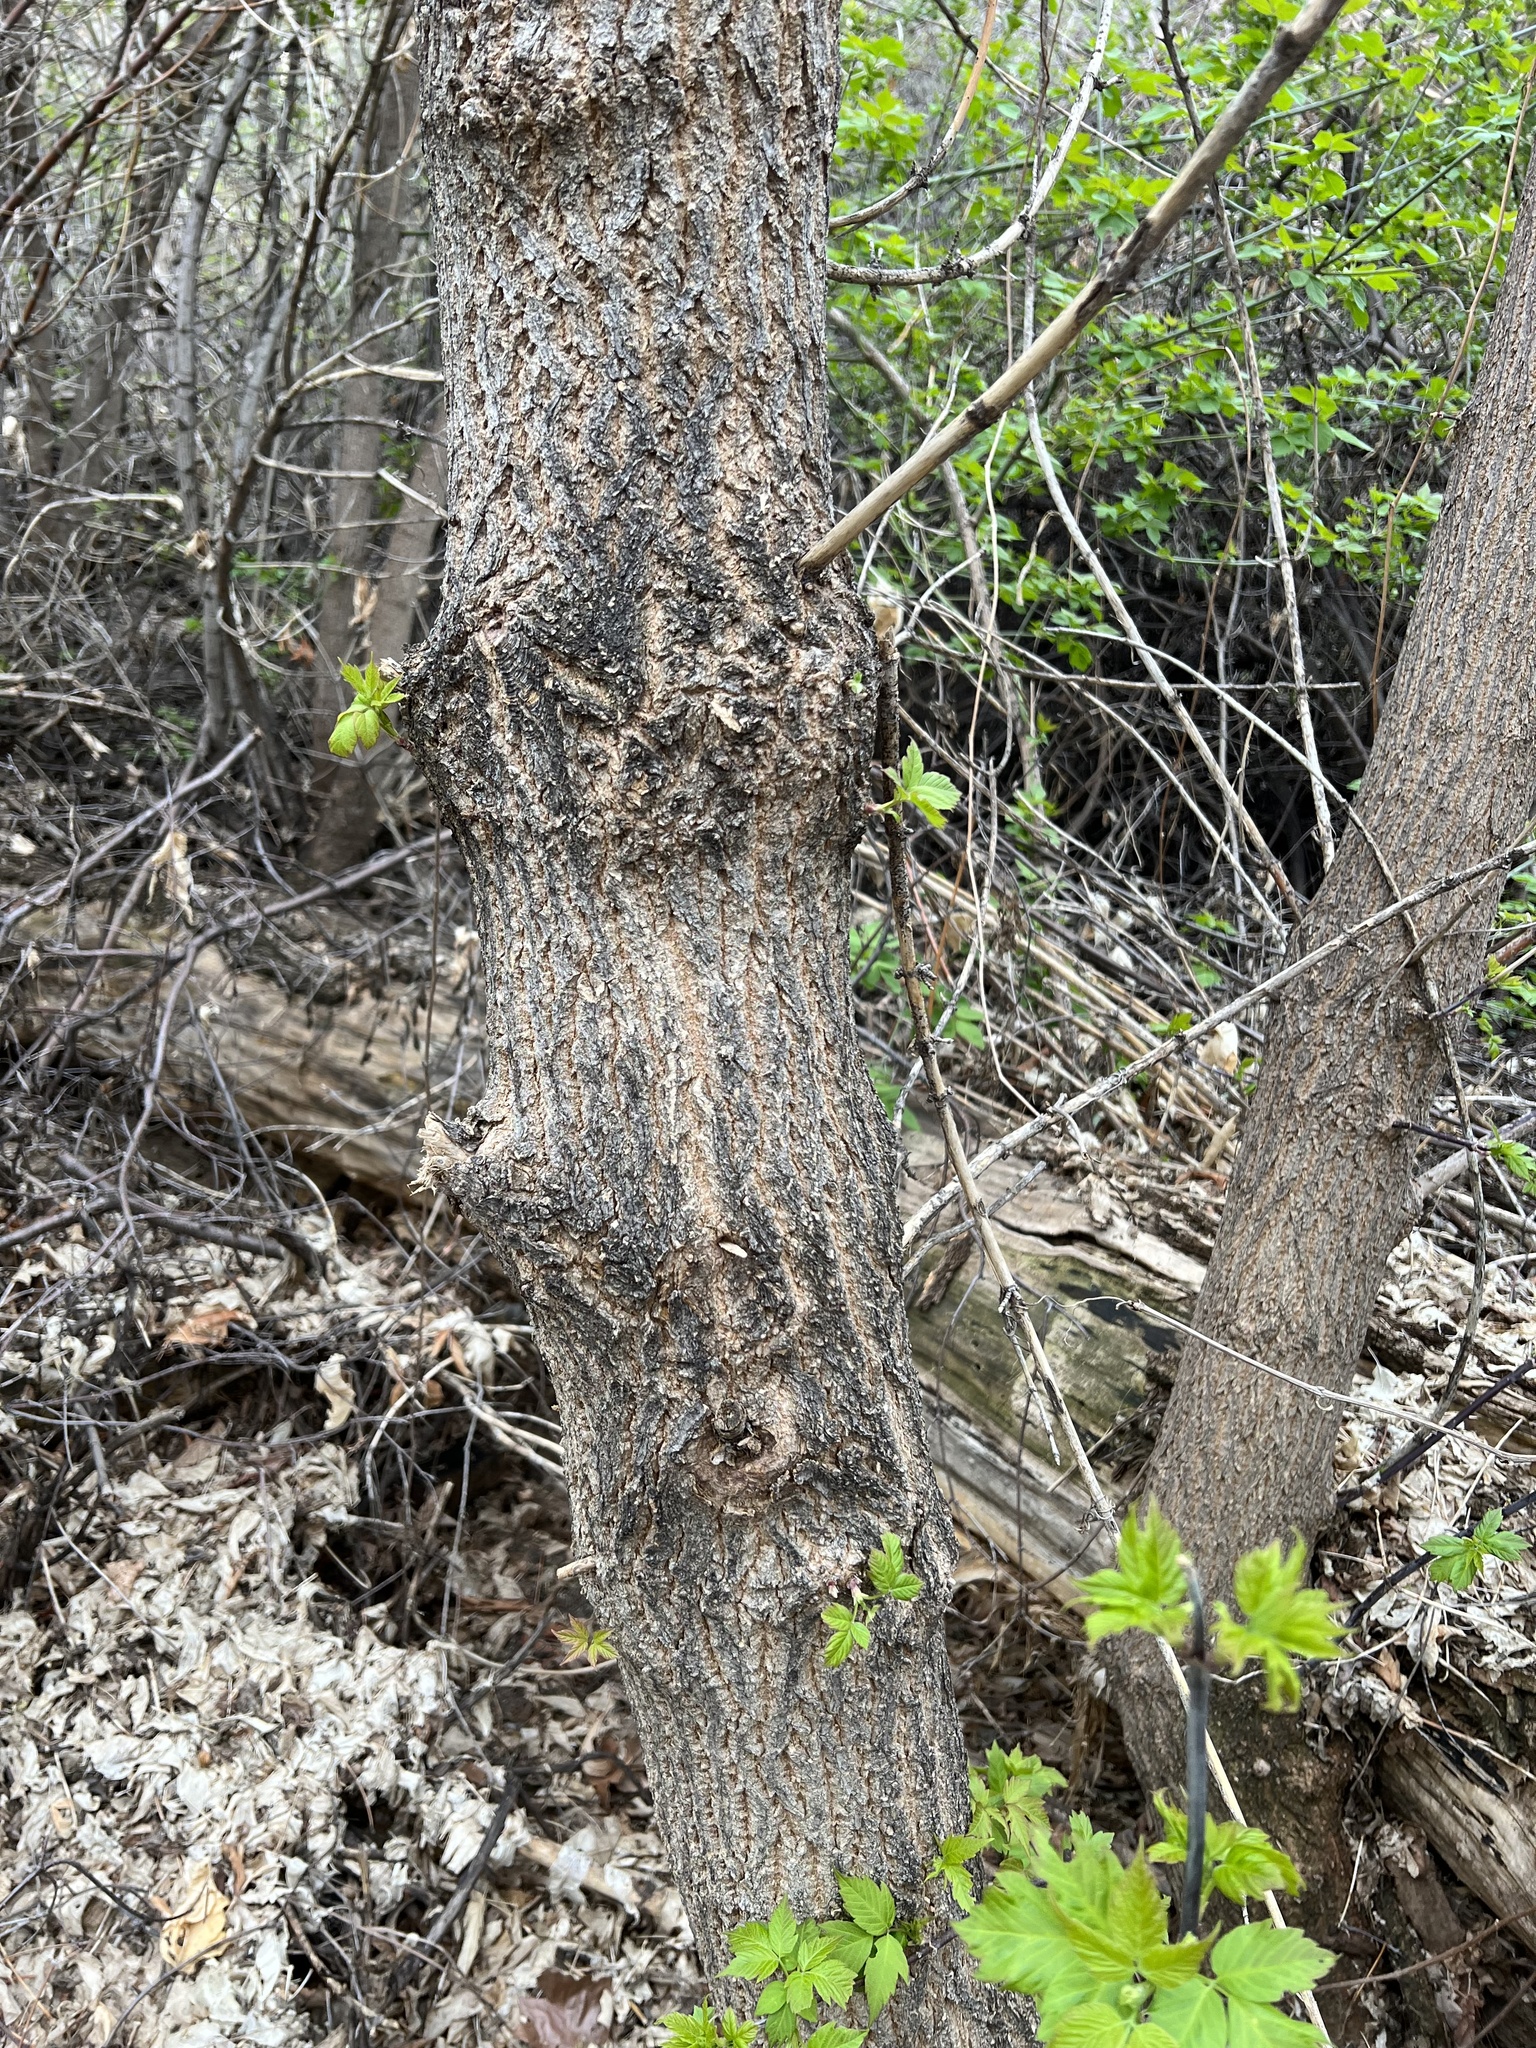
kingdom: Plantae
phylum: Tracheophyta
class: Magnoliopsida
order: Sapindales
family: Sapindaceae
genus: Acer
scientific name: Acer glabrum
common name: Rocky mountain maple
